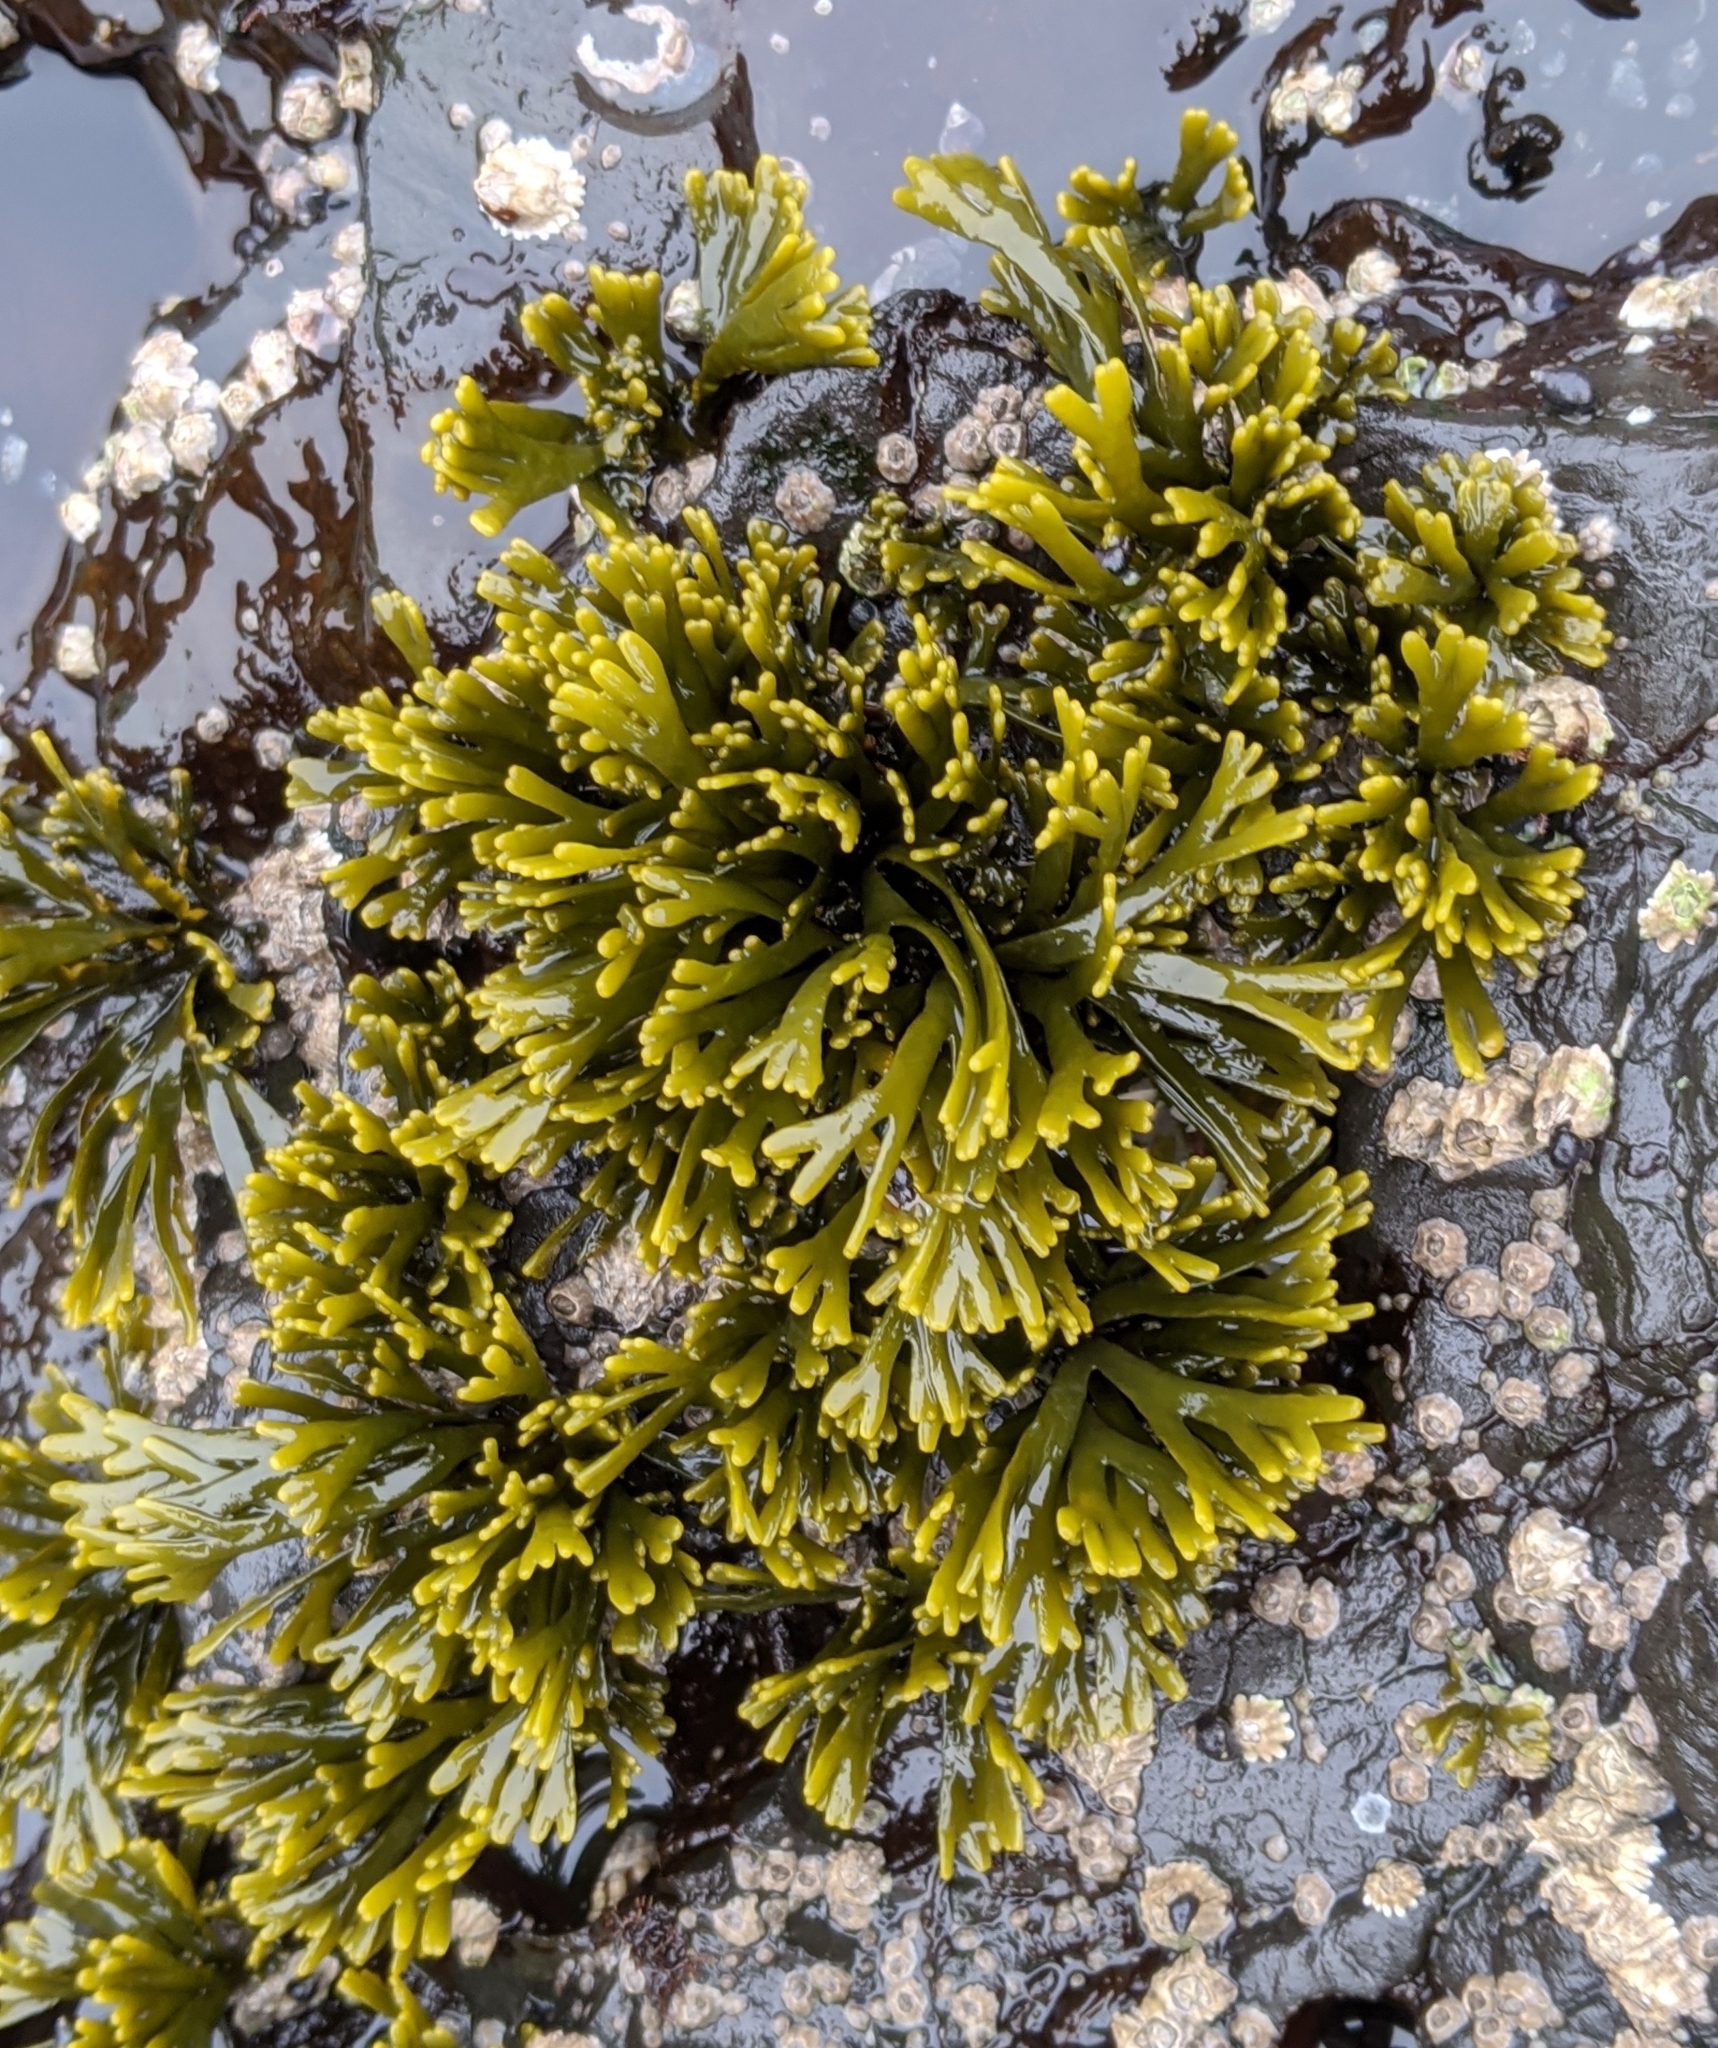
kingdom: Chromista
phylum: Ochrophyta
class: Phaeophyceae
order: Fucales
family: Fucaceae
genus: Pelvetiopsis
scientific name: Pelvetiopsis limitata
